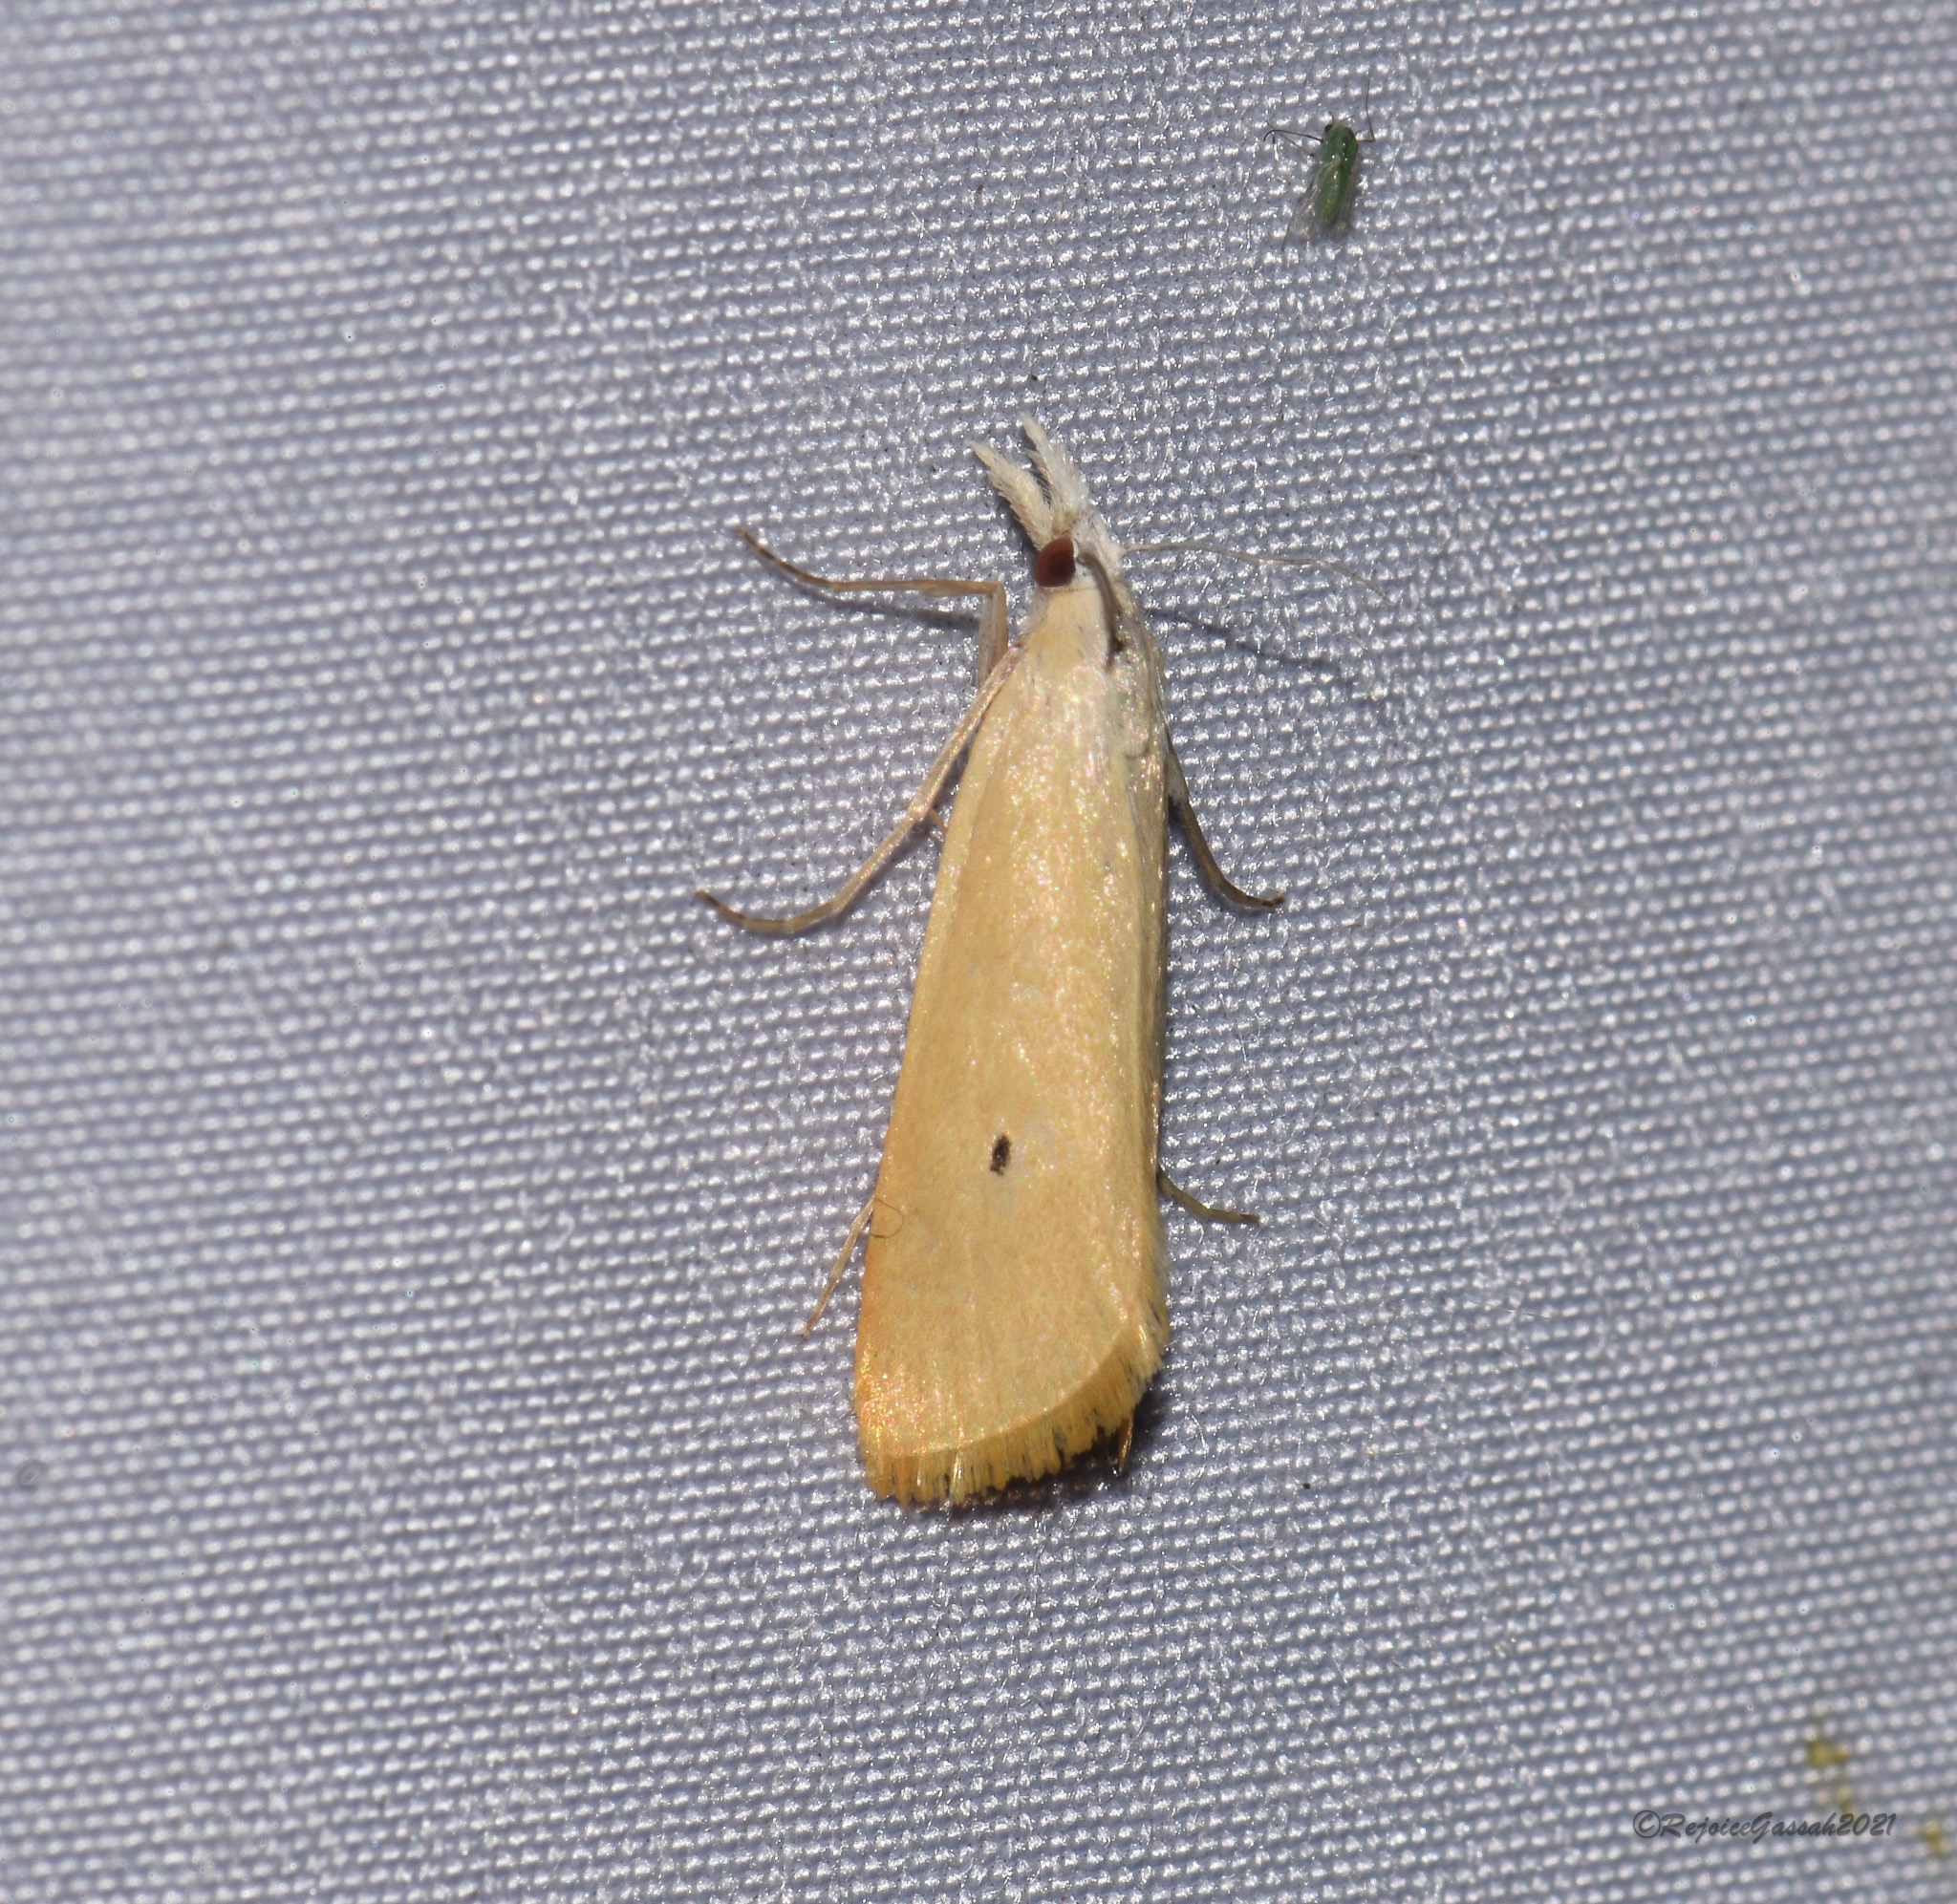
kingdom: Animalia
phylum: Arthropoda
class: Insecta
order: Lepidoptera
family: Crambidae
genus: Scirpophaga
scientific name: Scirpophaga incertulas
